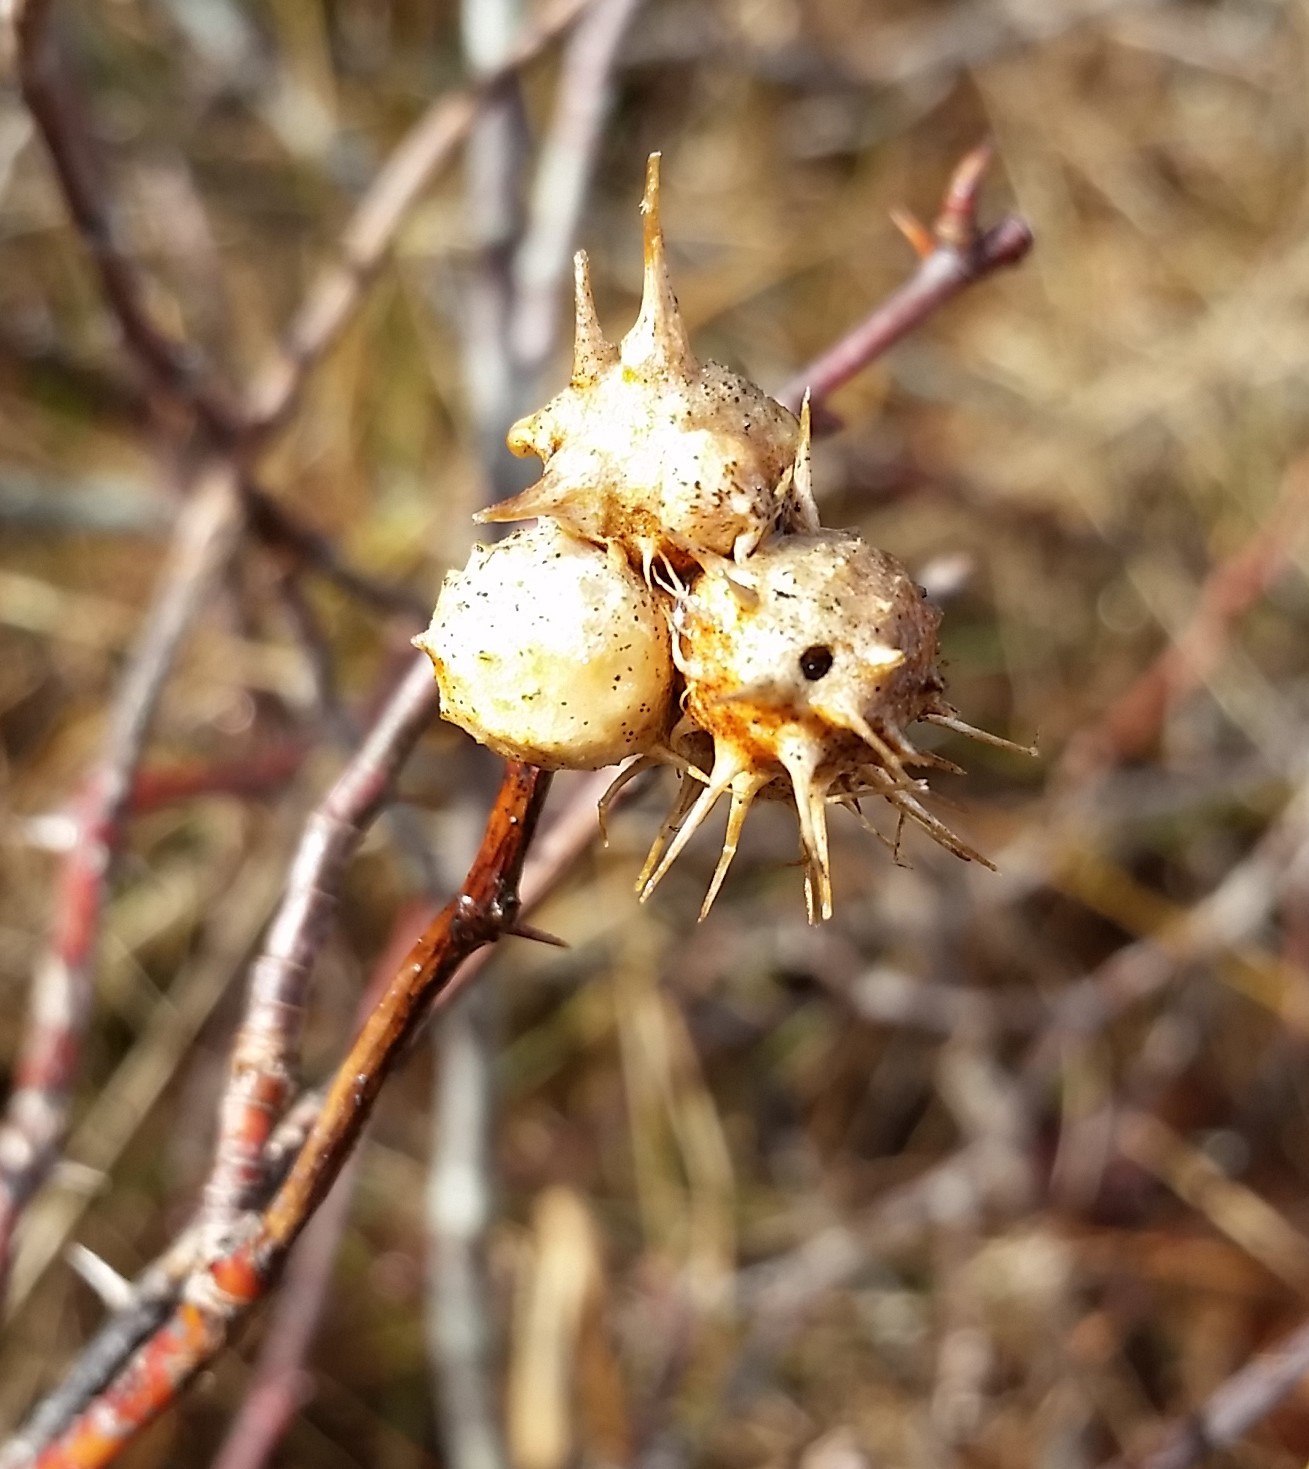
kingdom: Animalia
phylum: Arthropoda
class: Insecta
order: Hymenoptera
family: Cynipidae
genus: Diplolepis
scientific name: Diplolepis bicolor
